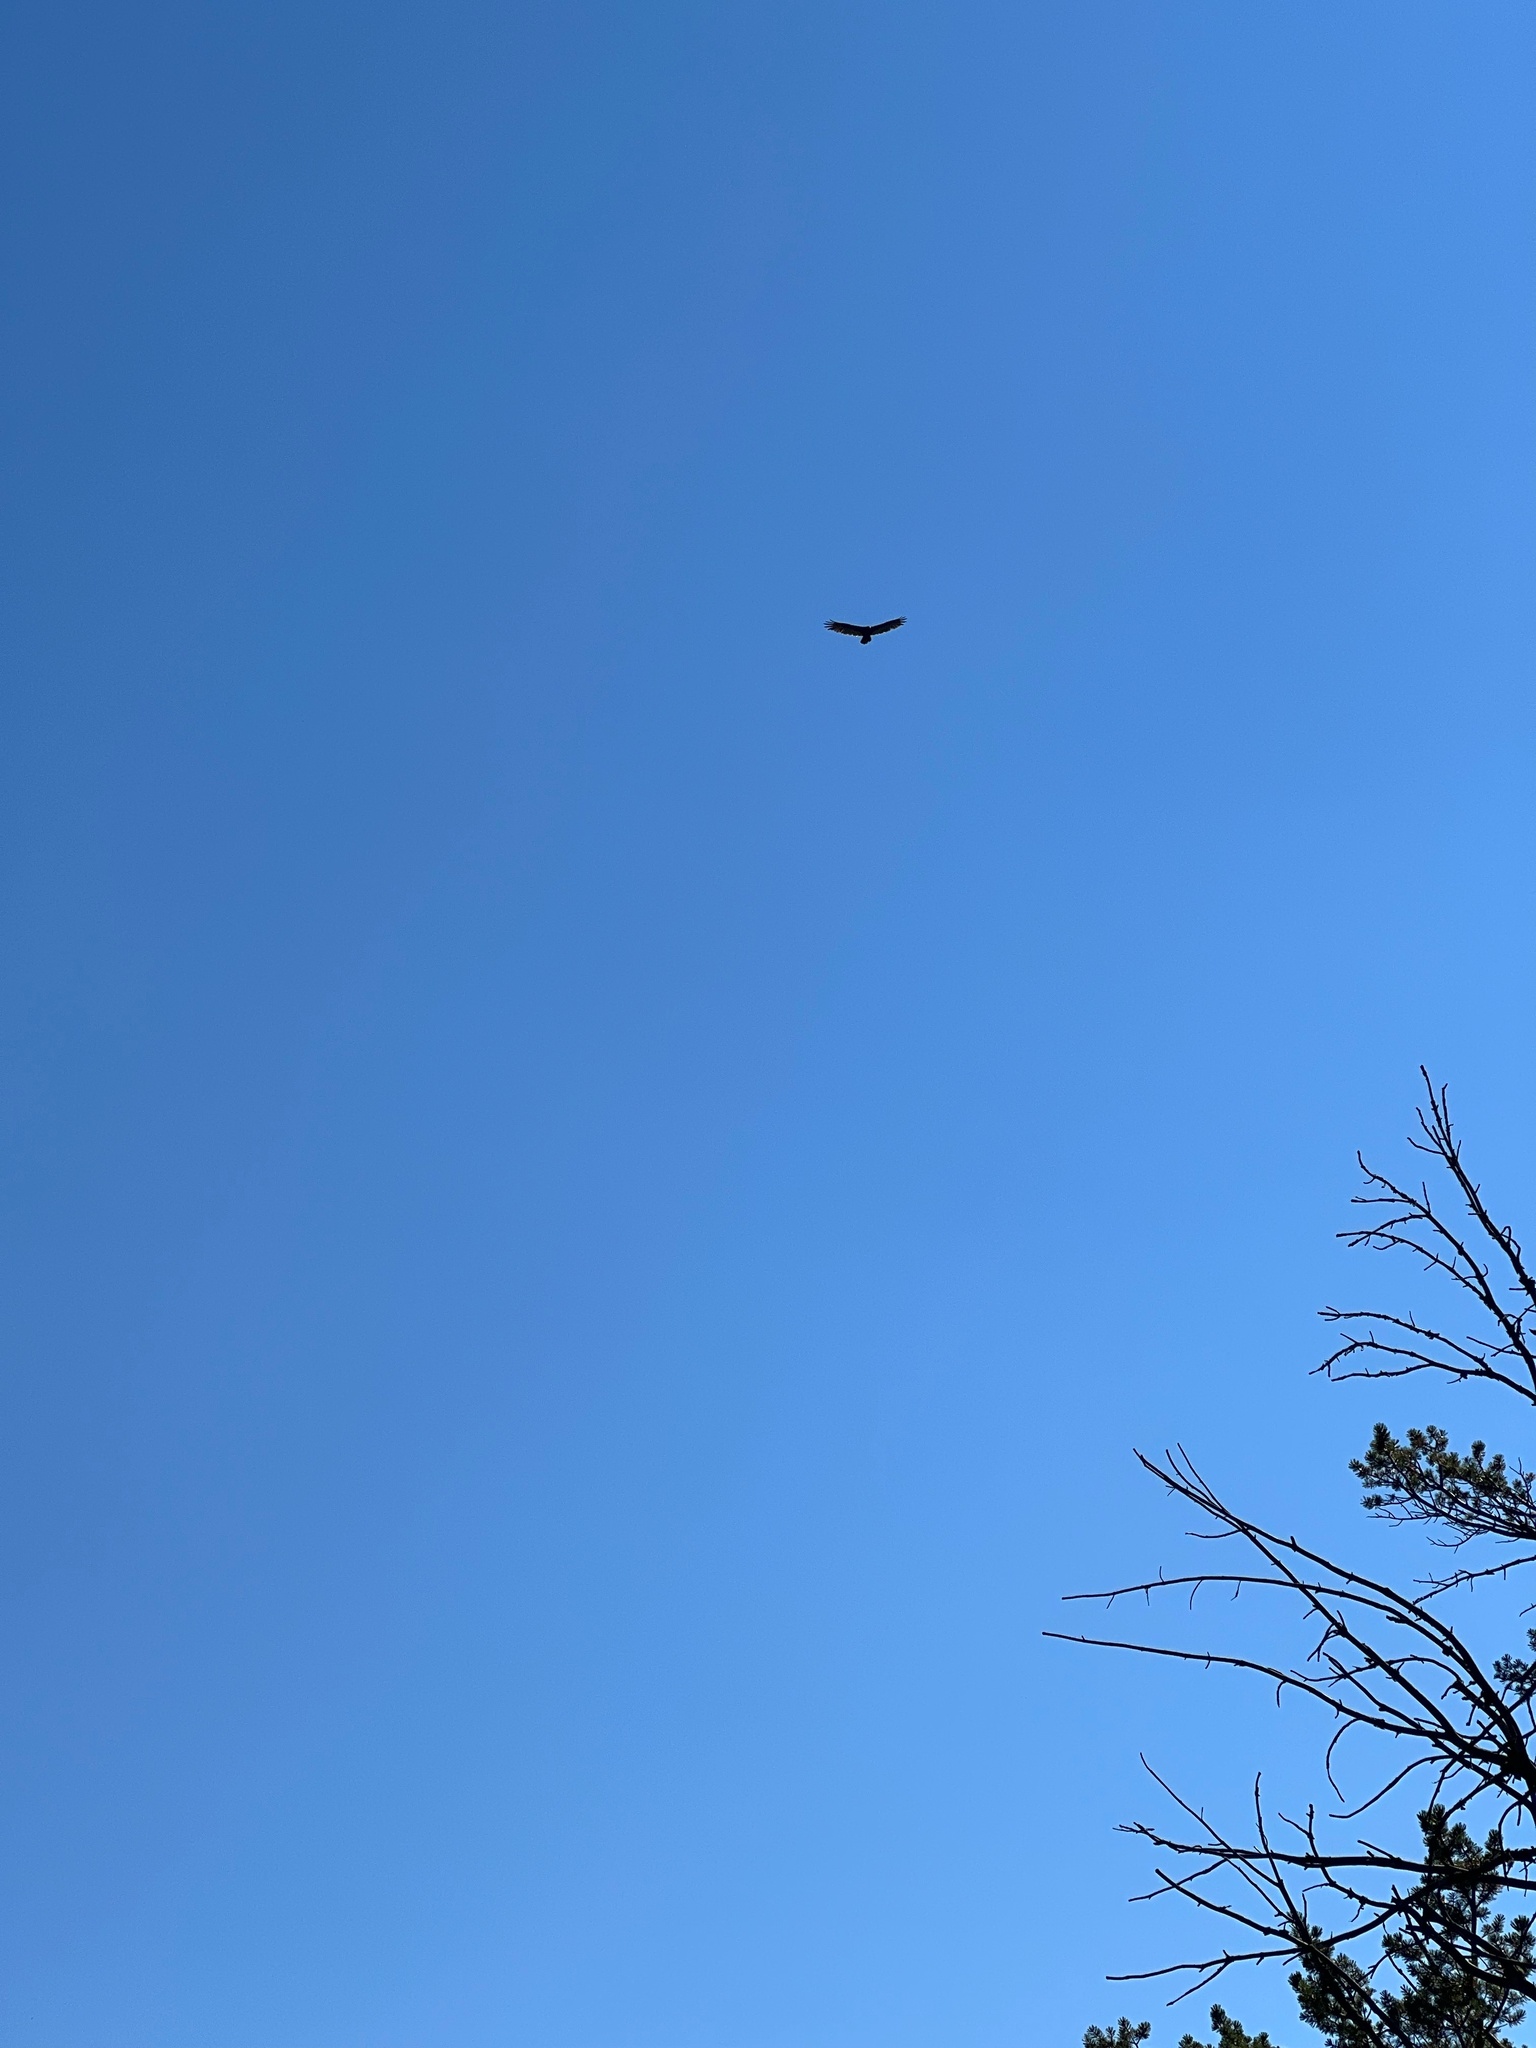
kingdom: Animalia
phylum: Chordata
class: Aves
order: Accipitriformes
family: Cathartidae
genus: Cathartes
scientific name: Cathartes aura
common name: Turkey vulture
